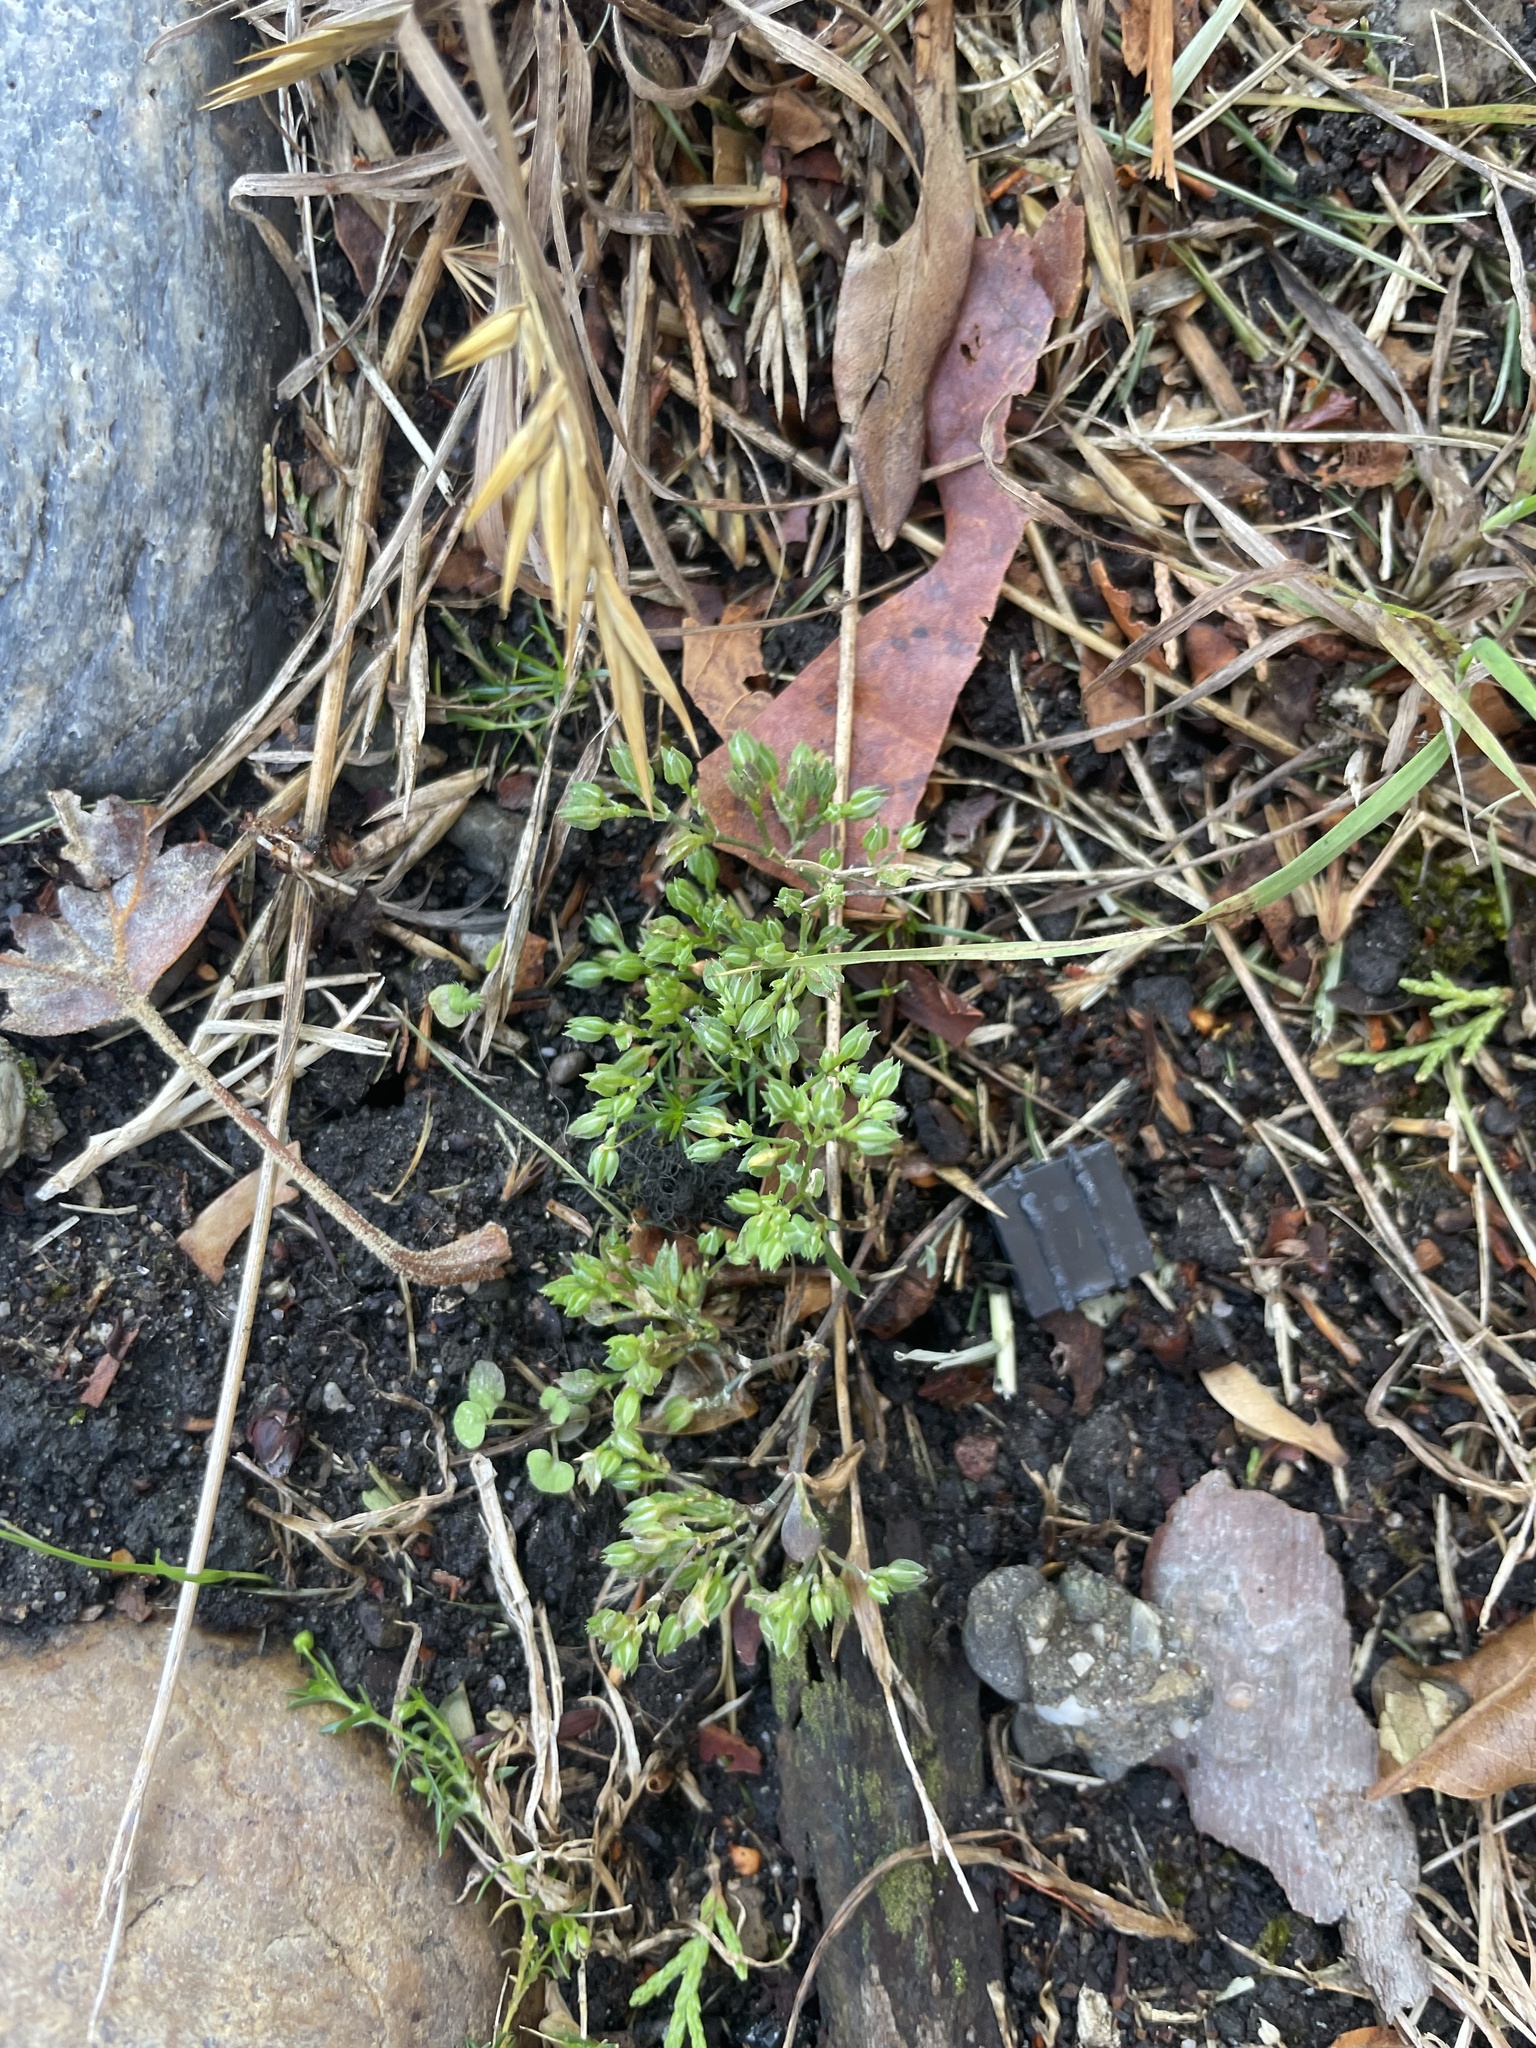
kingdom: Plantae
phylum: Tracheophyta
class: Magnoliopsida
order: Caryophyllales
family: Caryophyllaceae
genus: Polycarpon
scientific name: Polycarpon tetraphyllum
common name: Four-leaved all-seed
